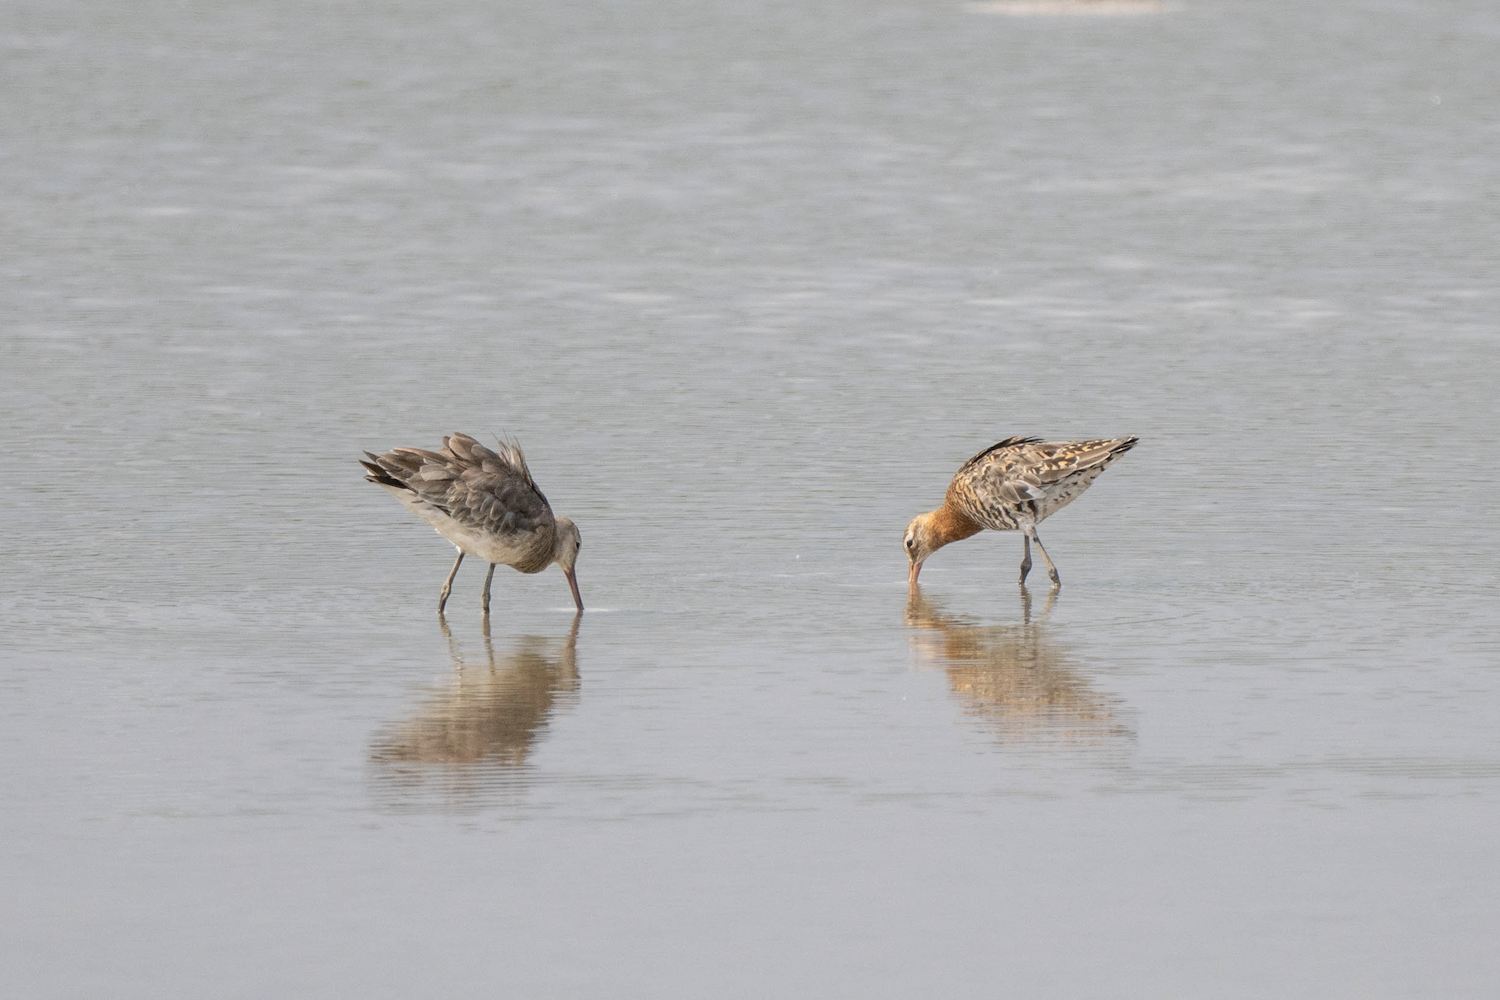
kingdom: Animalia
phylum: Chordata
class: Aves
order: Charadriiformes
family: Scolopacidae
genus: Limosa
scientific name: Limosa limosa
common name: Black-tailed godwit
